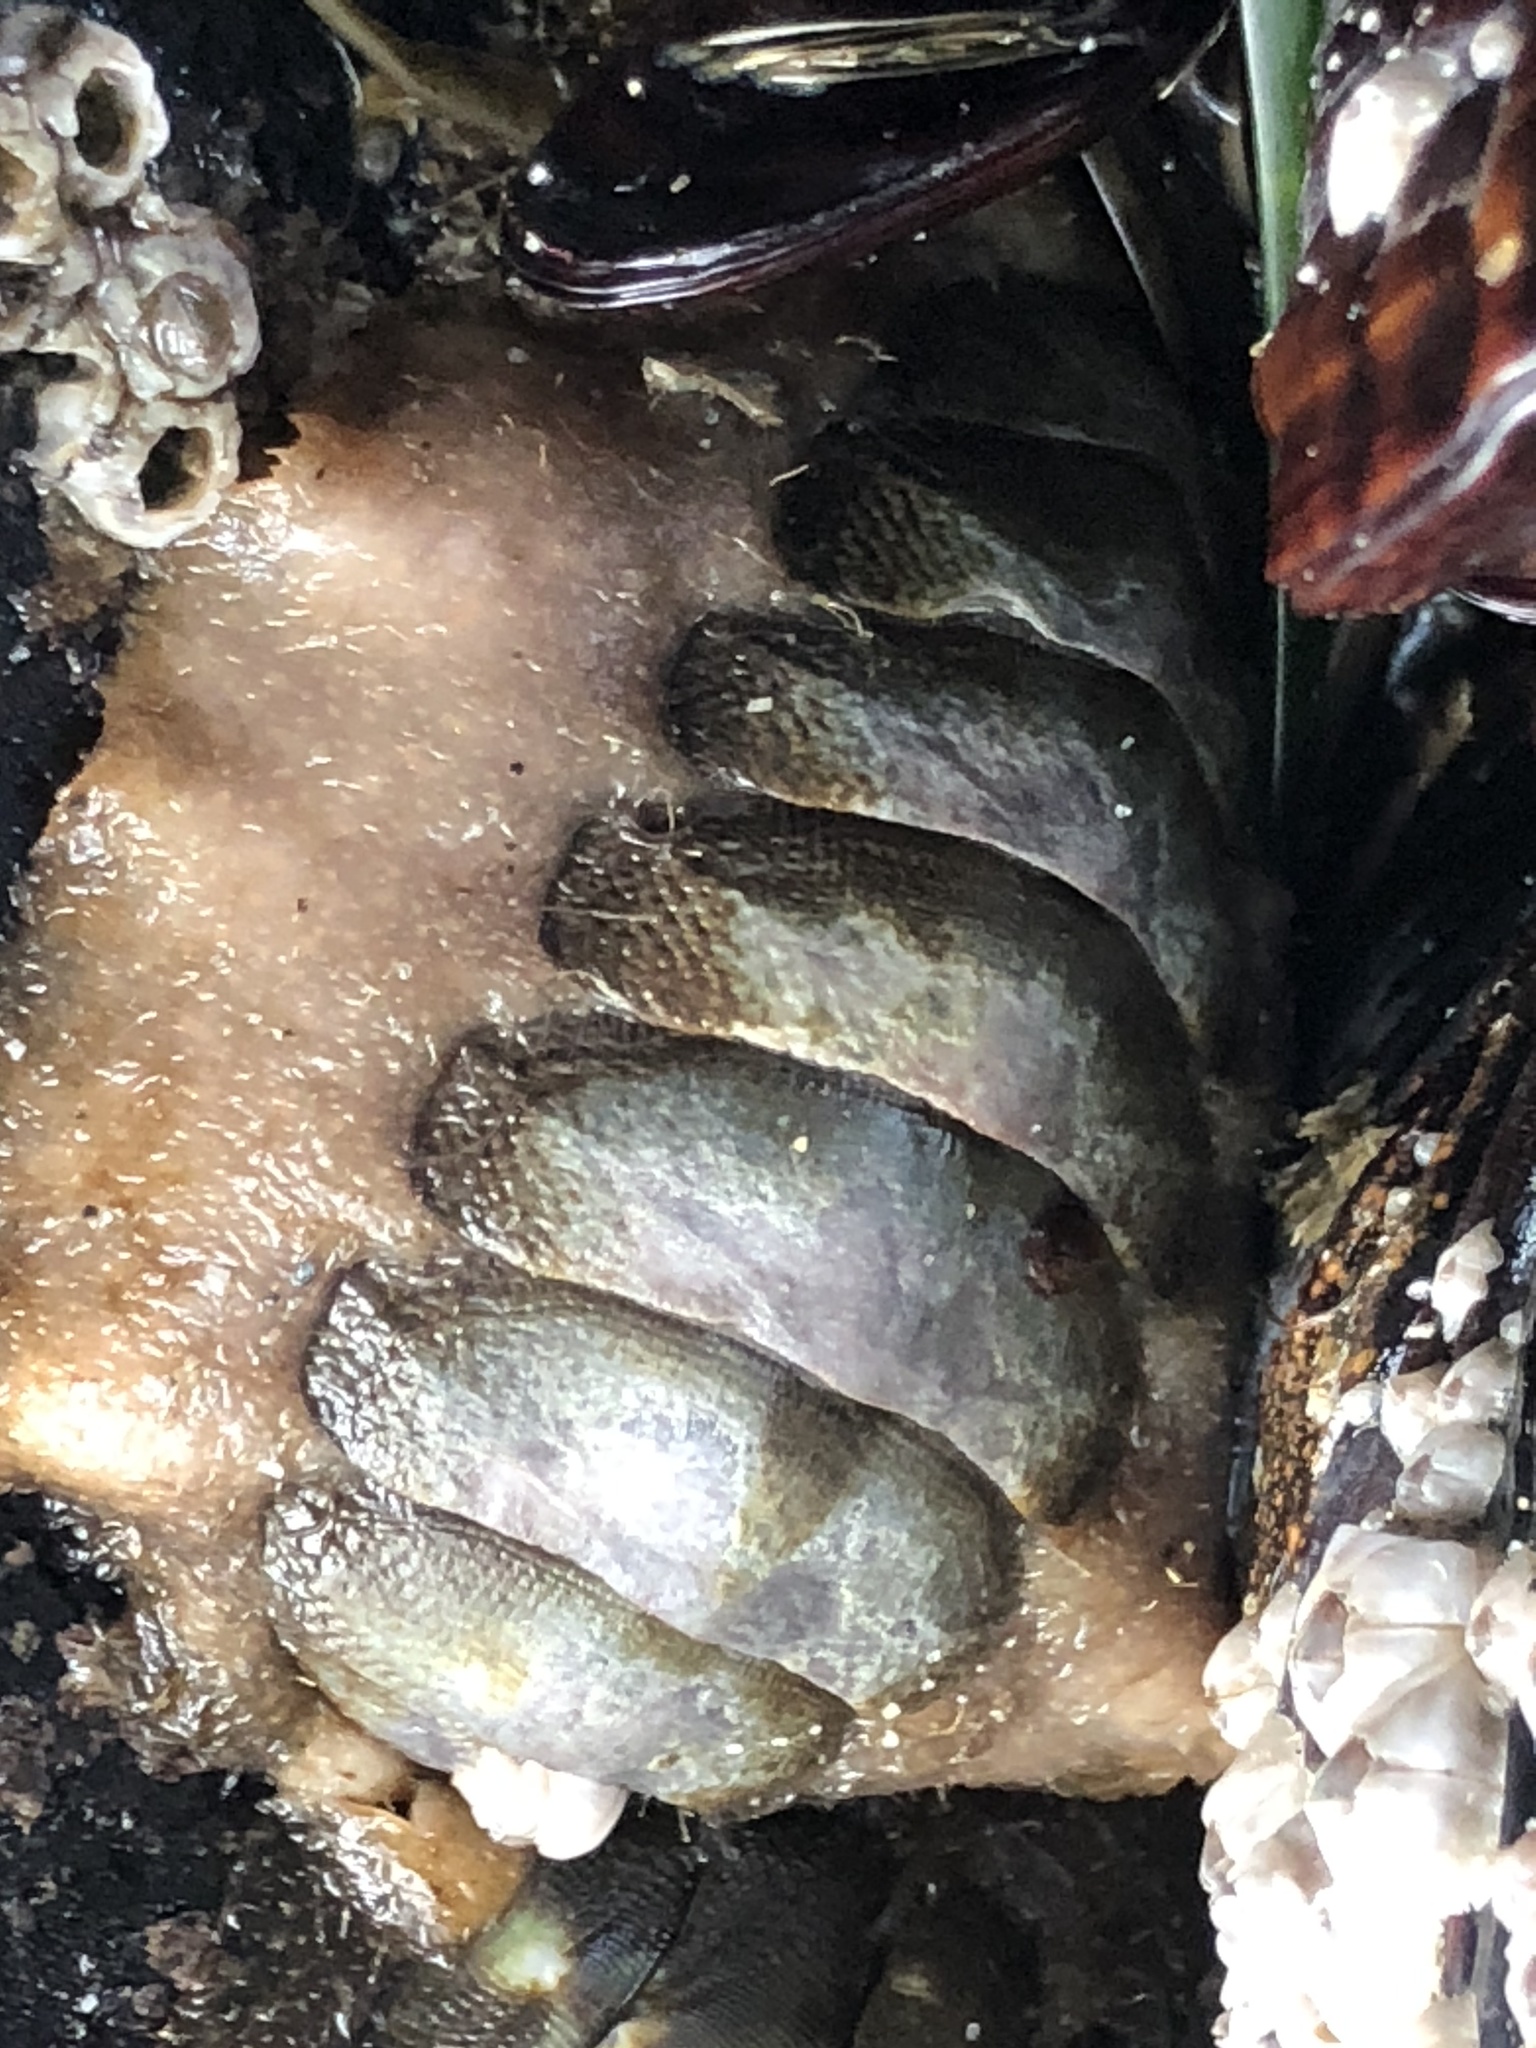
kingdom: Animalia
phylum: Mollusca
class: Polyplacophora
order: Chitonida
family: Mopaliidae
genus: Mopalia
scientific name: Mopalia hindsii
